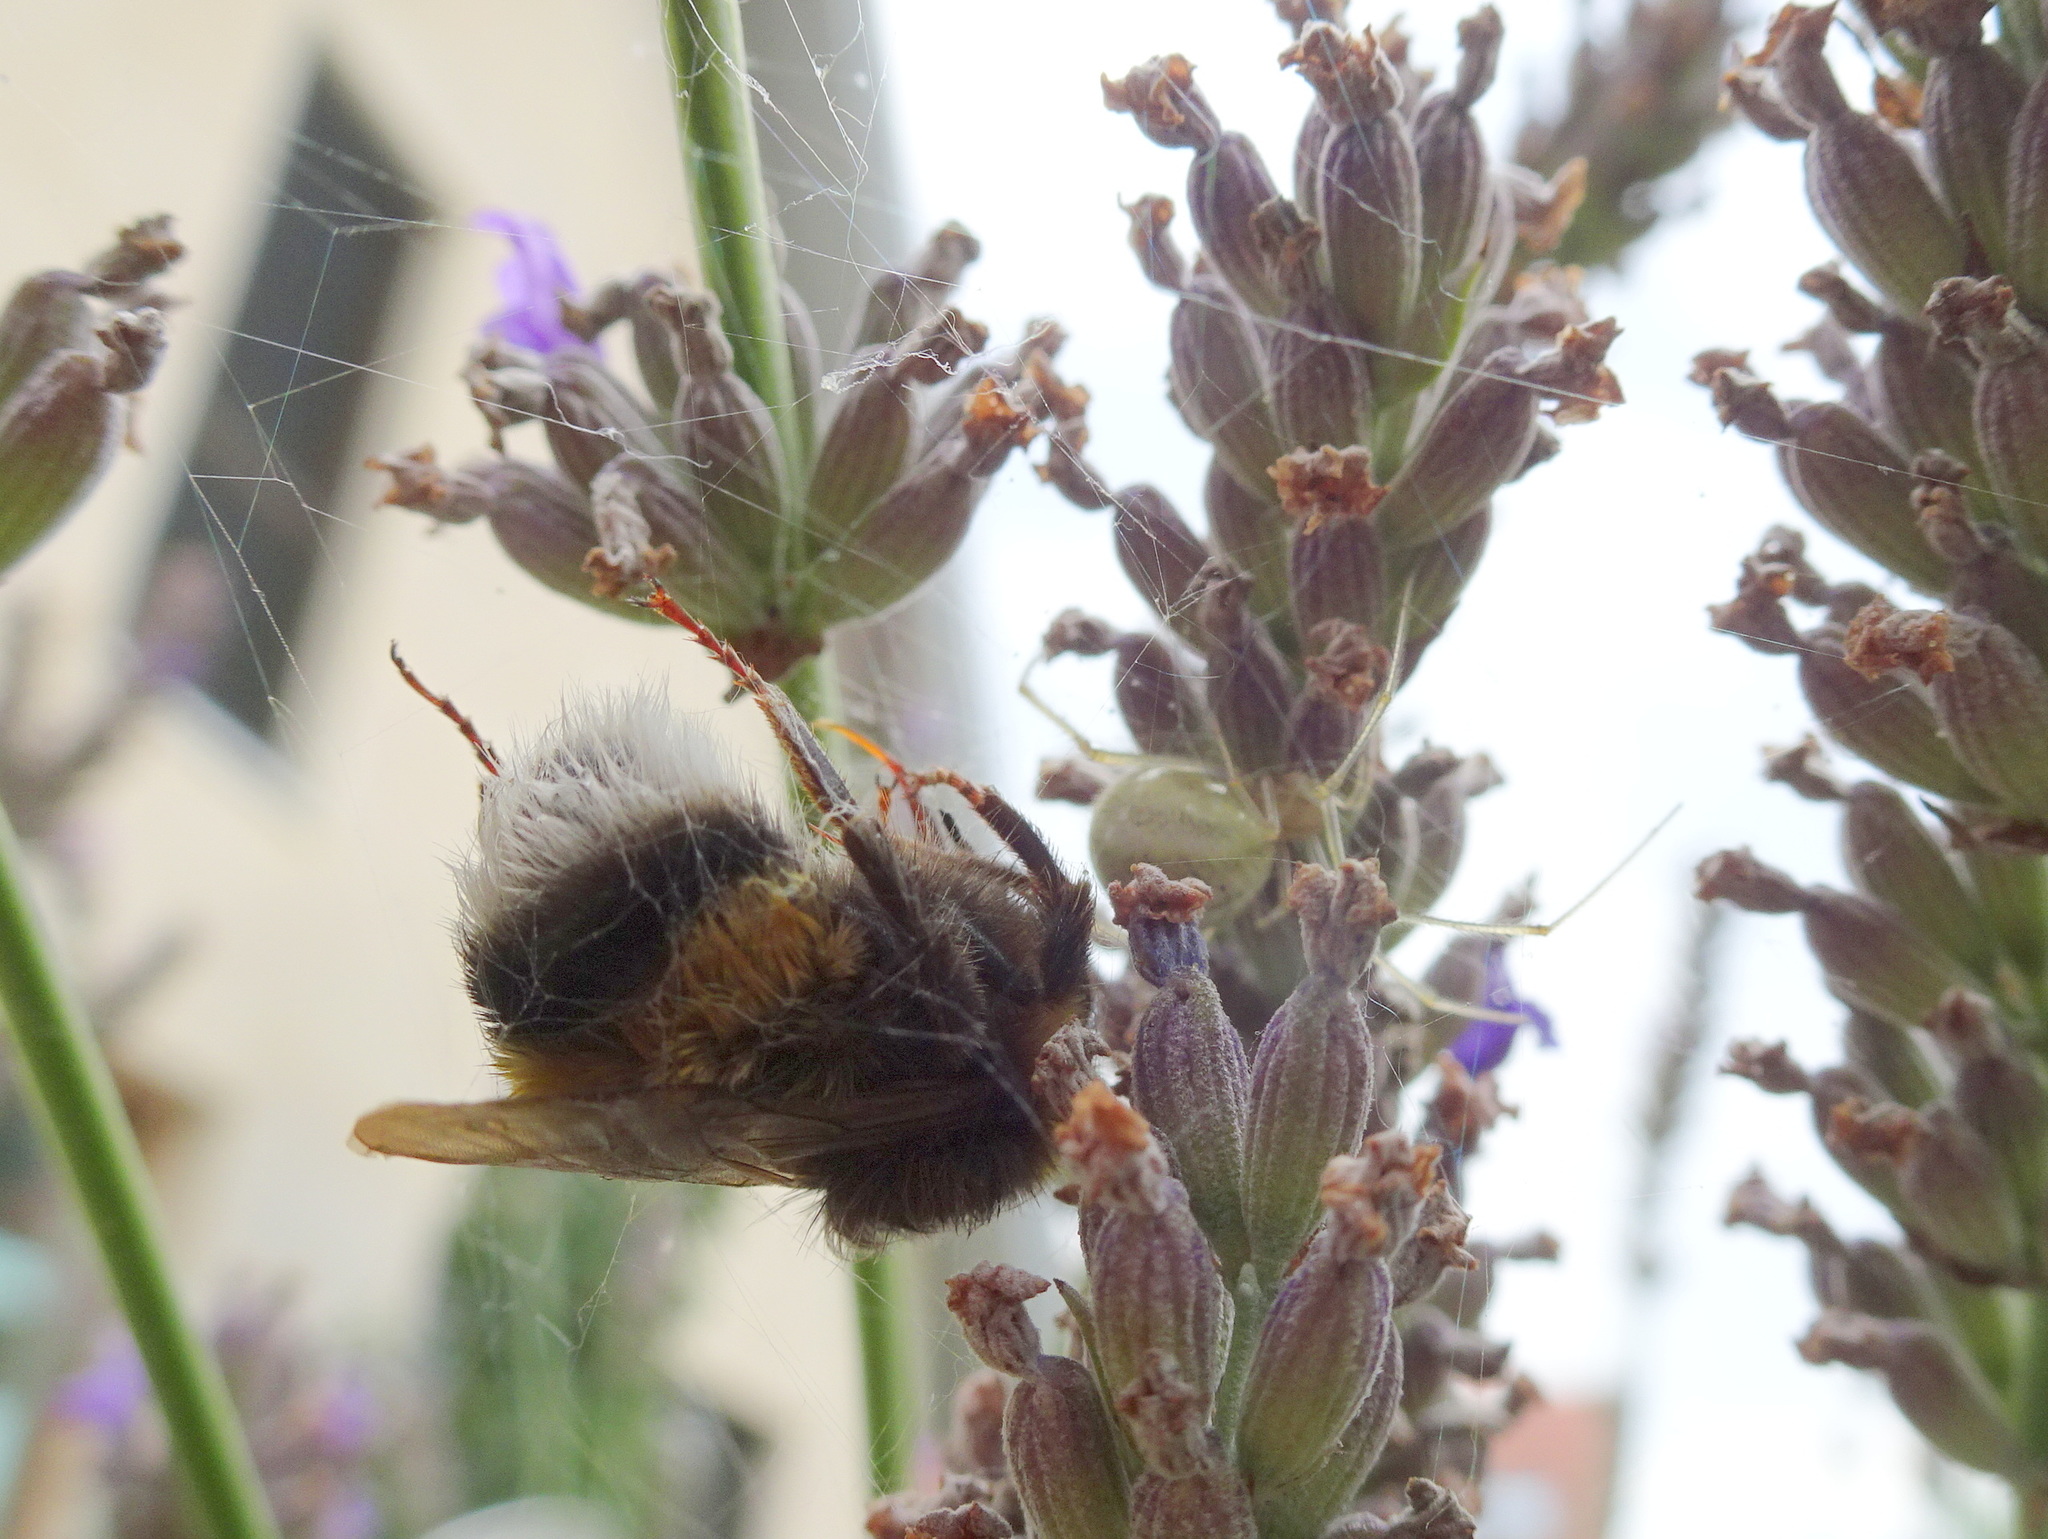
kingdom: Animalia
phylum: Arthropoda
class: Arachnida
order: Araneae
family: Theridiidae
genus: Enoplognatha
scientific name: Enoplognatha
